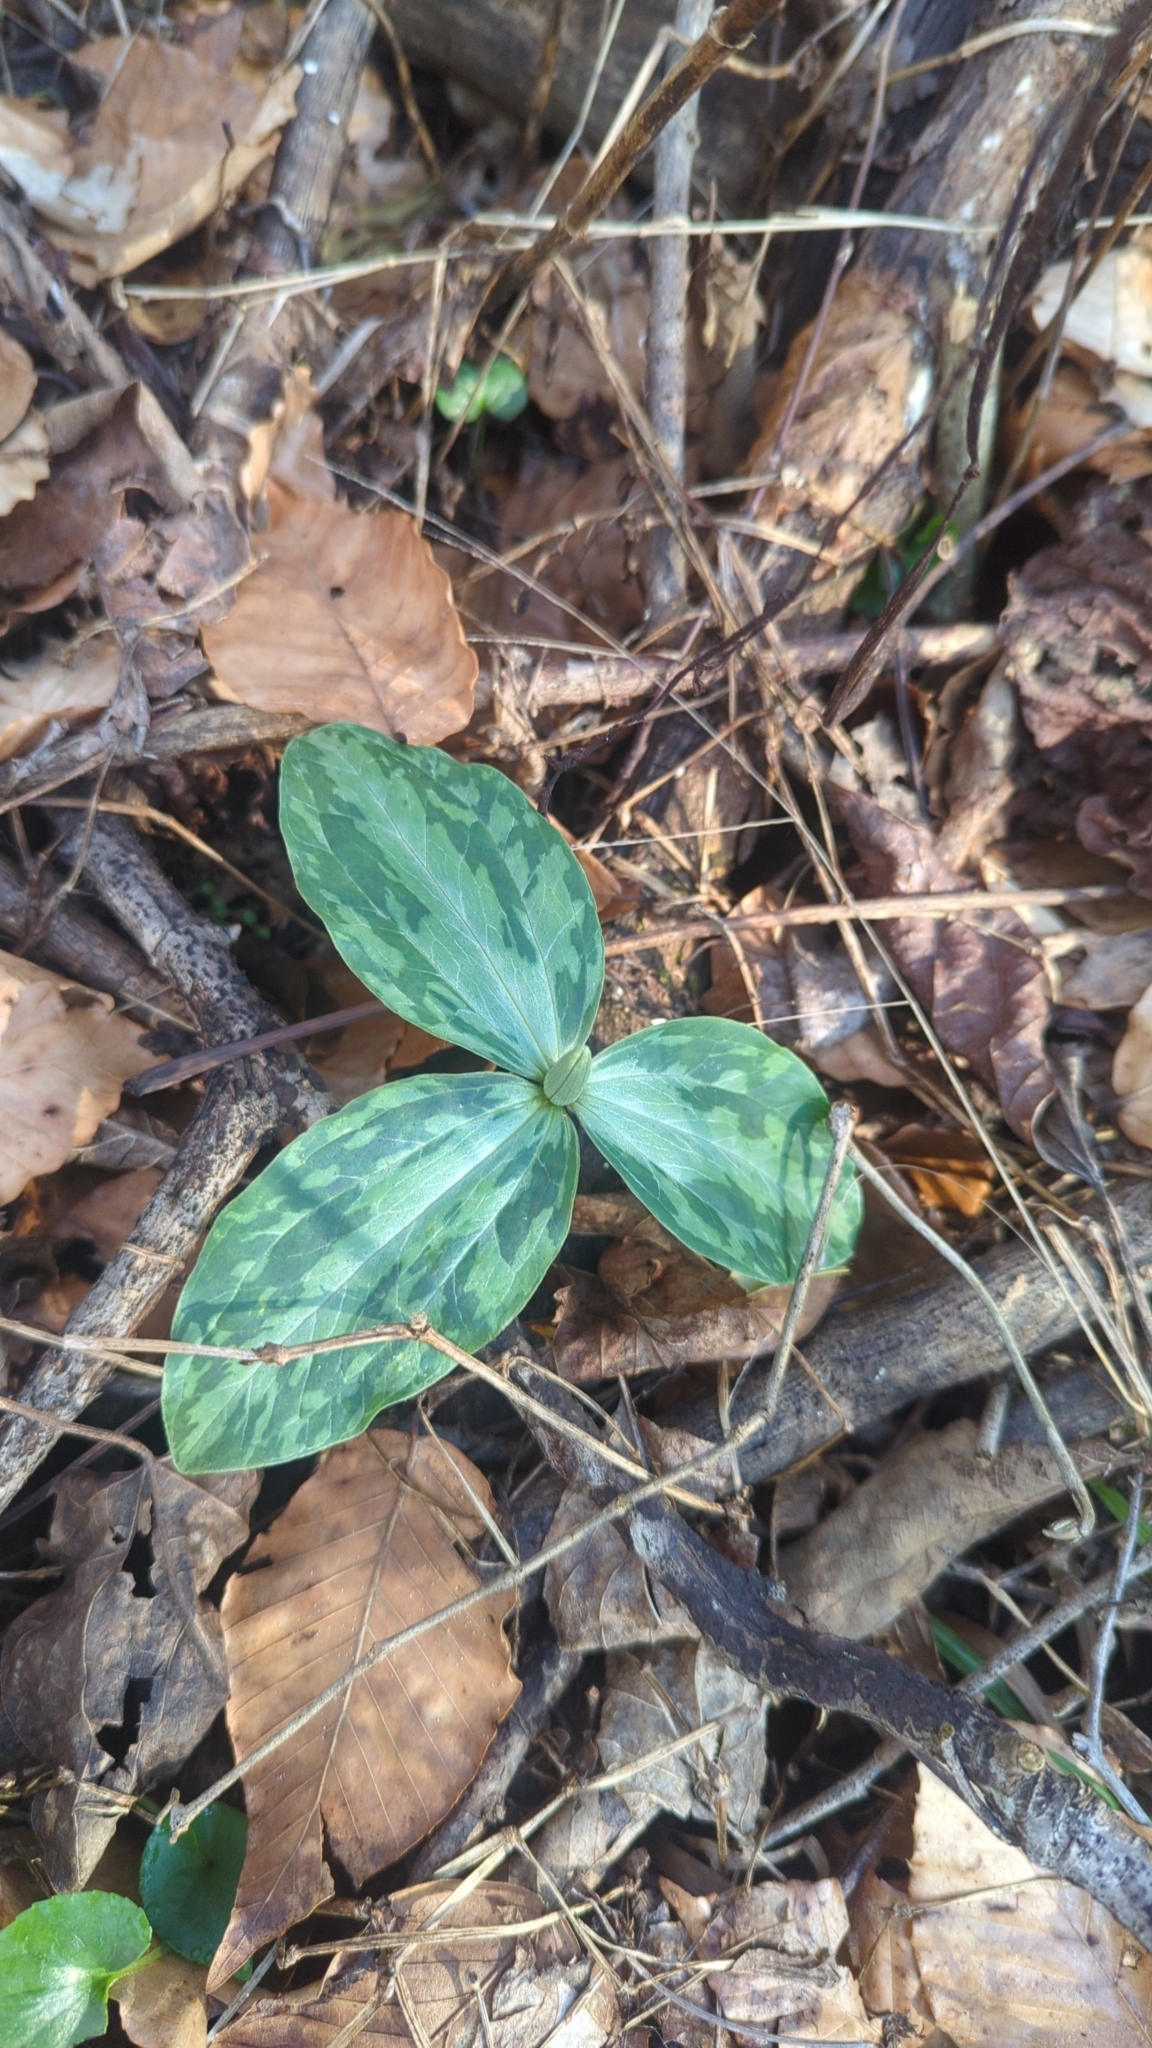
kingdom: Plantae
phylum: Tracheophyta
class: Liliopsida
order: Liliales
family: Melanthiaceae
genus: Trillium
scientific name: Trillium foetidissimum
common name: Mississippi river trillium
